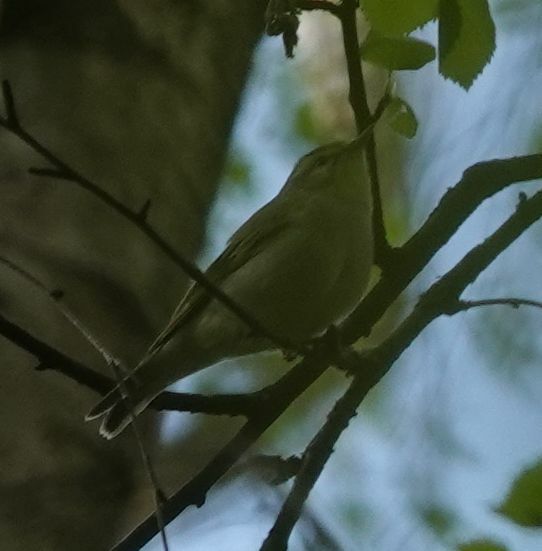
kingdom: Animalia
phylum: Chordata
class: Aves
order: Passeriformes
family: Phylloscopidae
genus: Phylloscopus
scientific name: Phylloscopus sibillatrix
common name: Wood warbler
